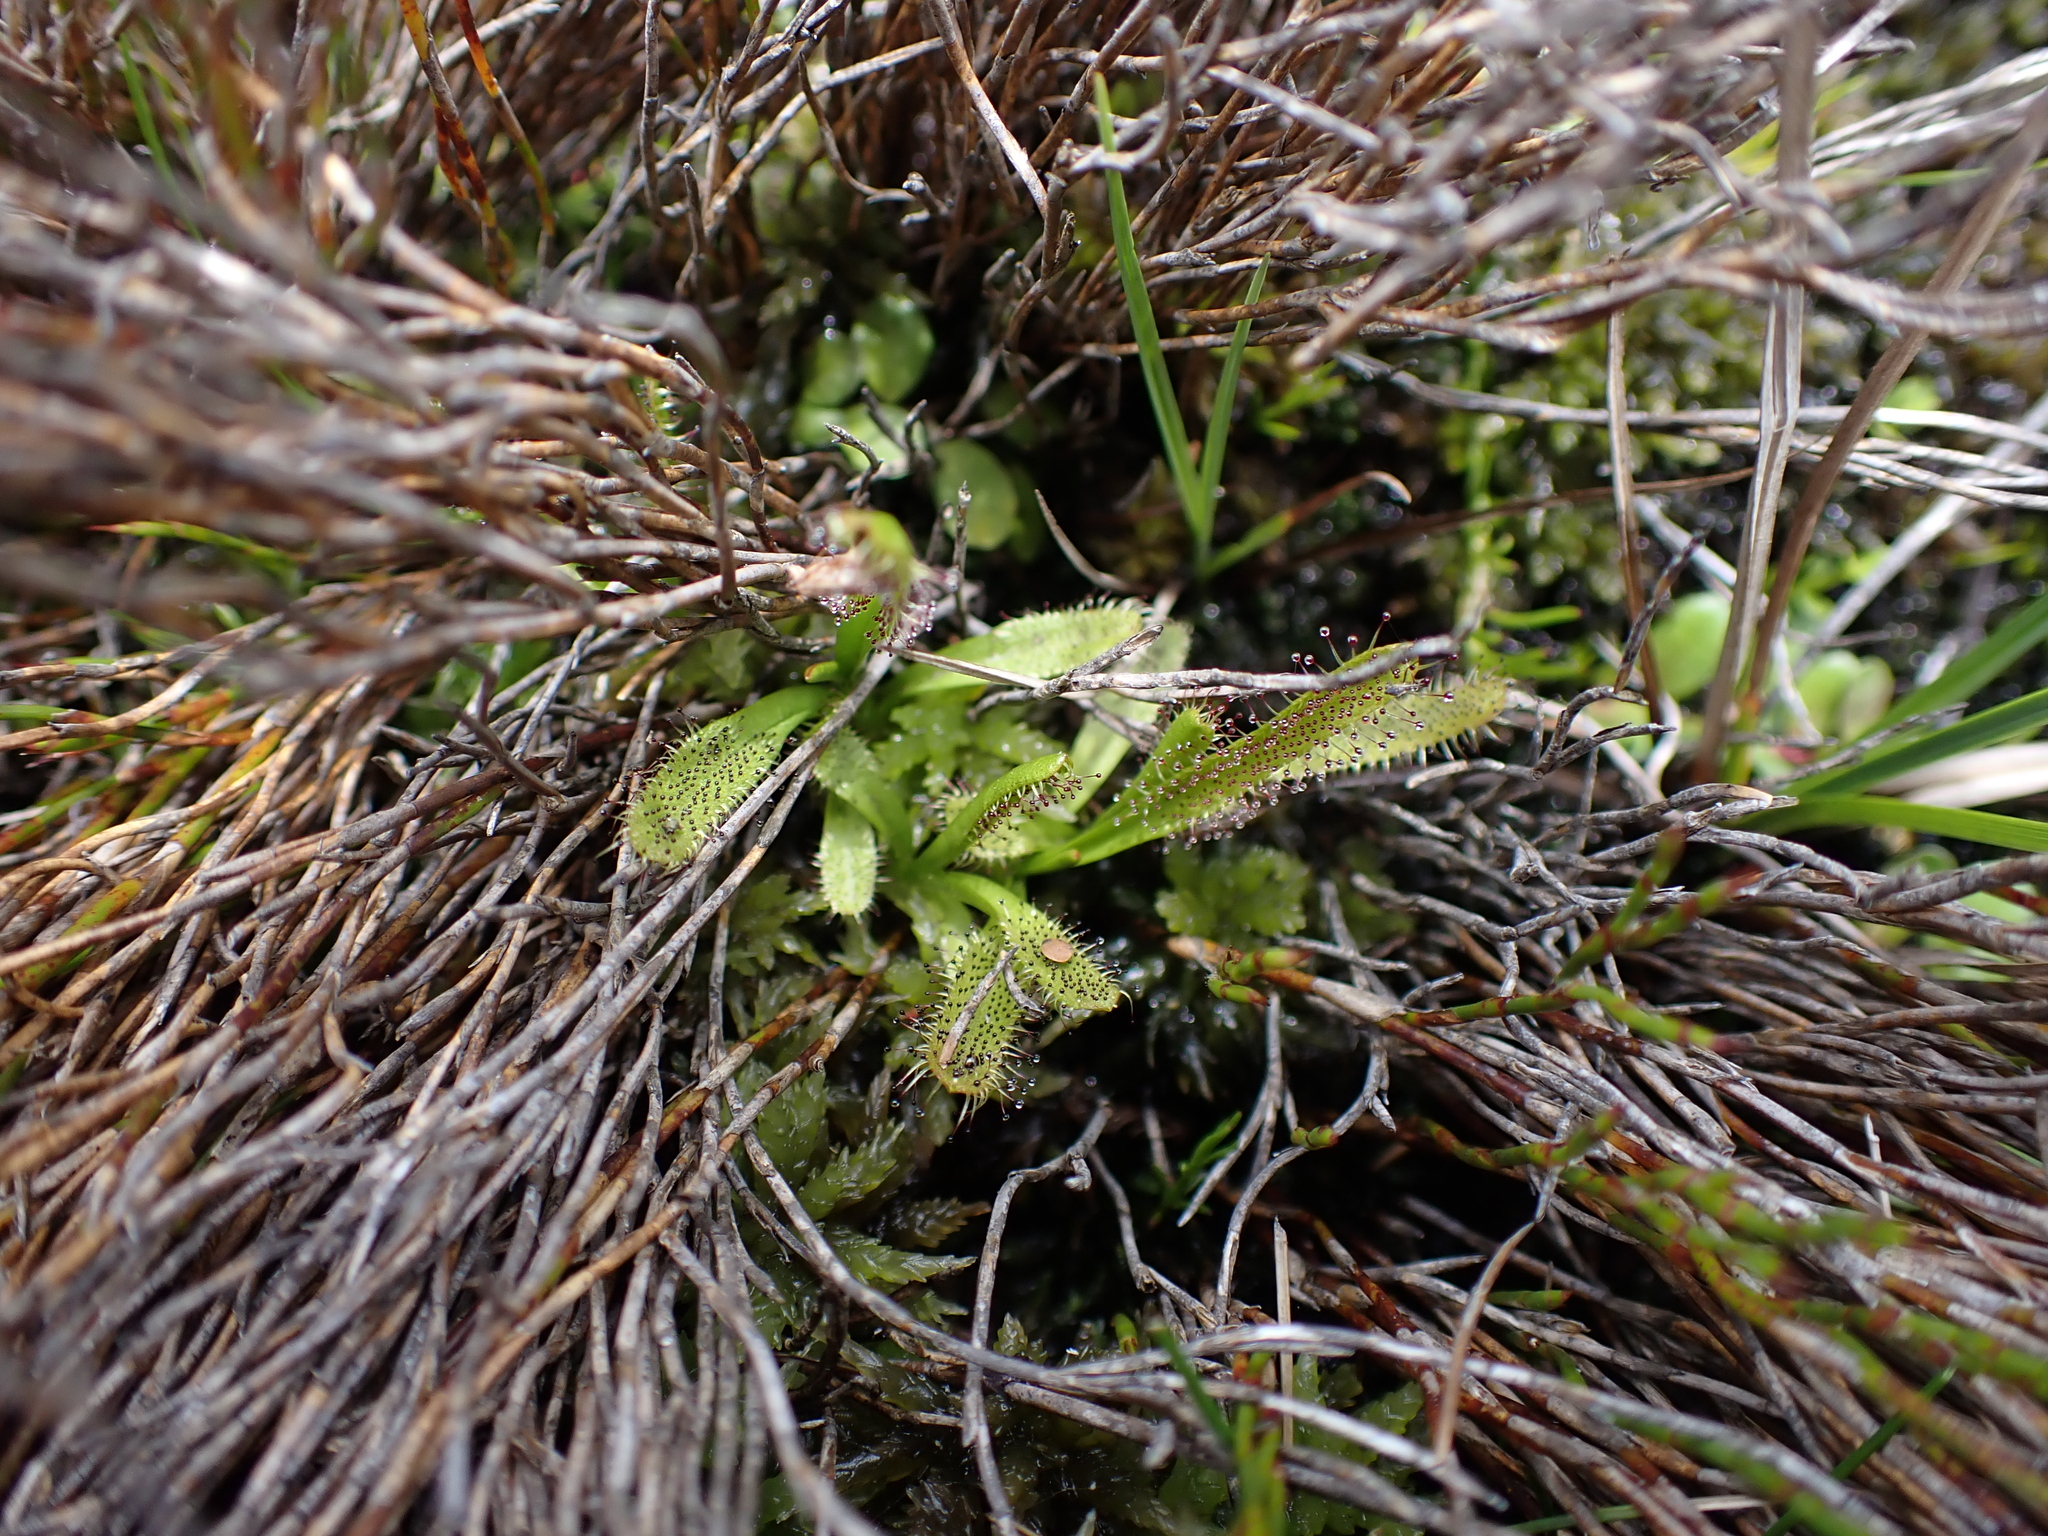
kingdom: Plantae
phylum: Tracheophyta
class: Magnoliopsida
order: Caryophyllales
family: Droseraceae
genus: Drosera
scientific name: Drosera arcturi
